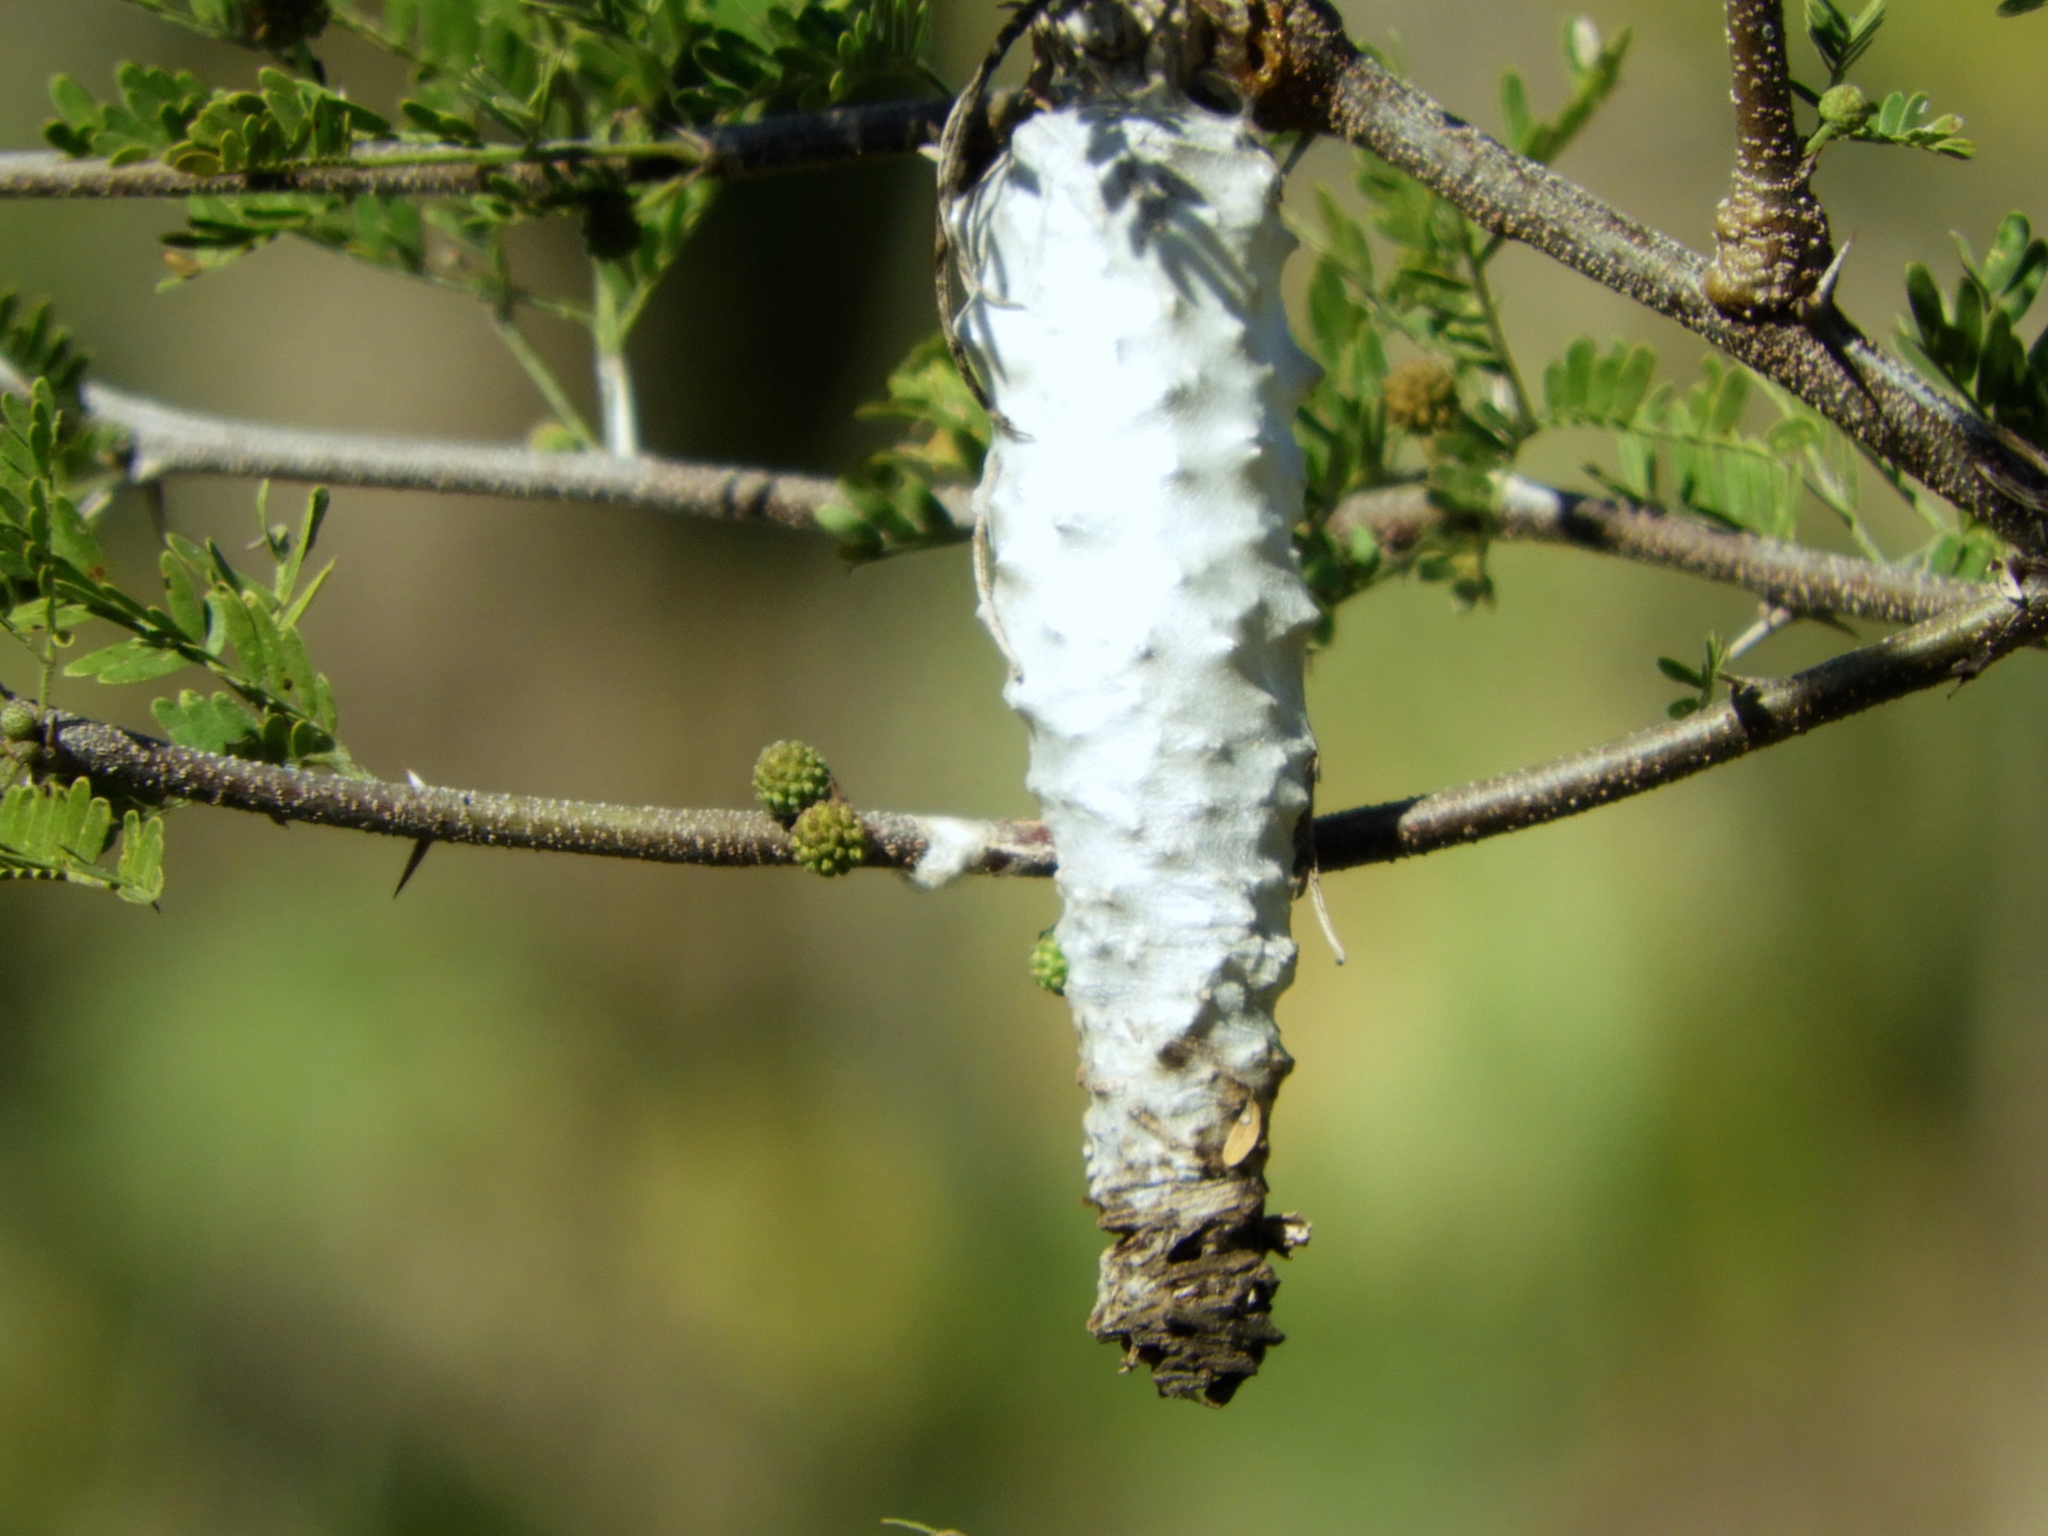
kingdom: Animalia
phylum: Arthropoda
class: Insecta
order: Lepidoptera
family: Psychidae
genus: Oiketicus
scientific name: Oiketicus
